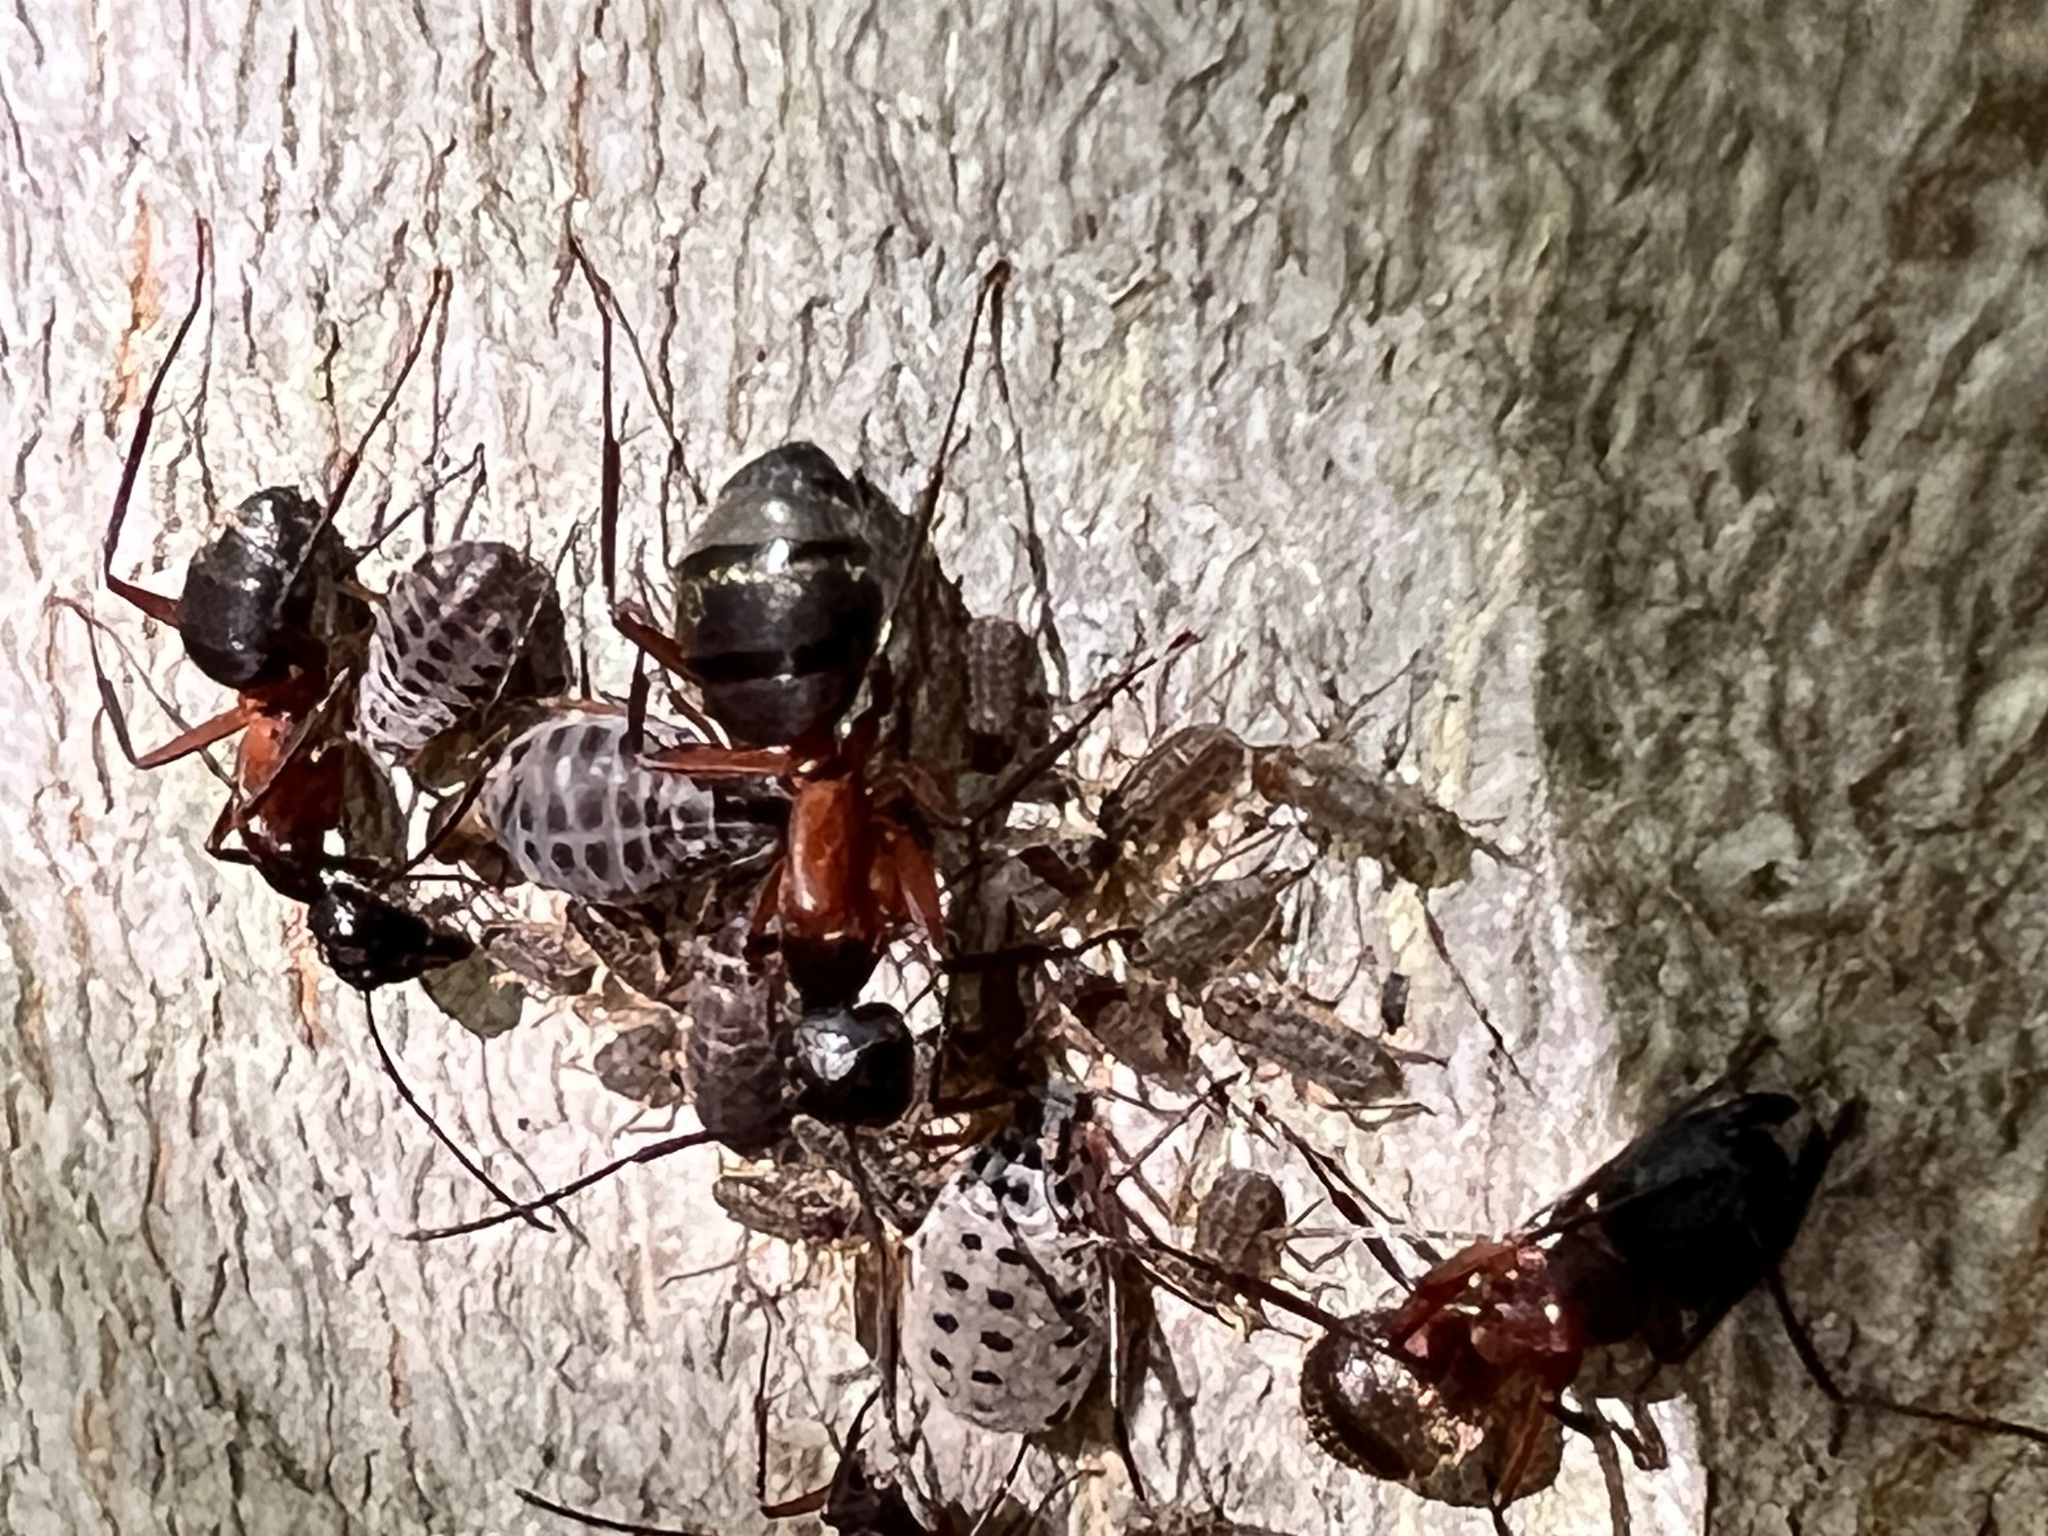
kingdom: Animalia
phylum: Arthropoda
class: Insecta
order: Hymenoptera
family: Formicidae
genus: Camponotus
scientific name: Camponotus chromaiodes
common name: Red carpenter ant
